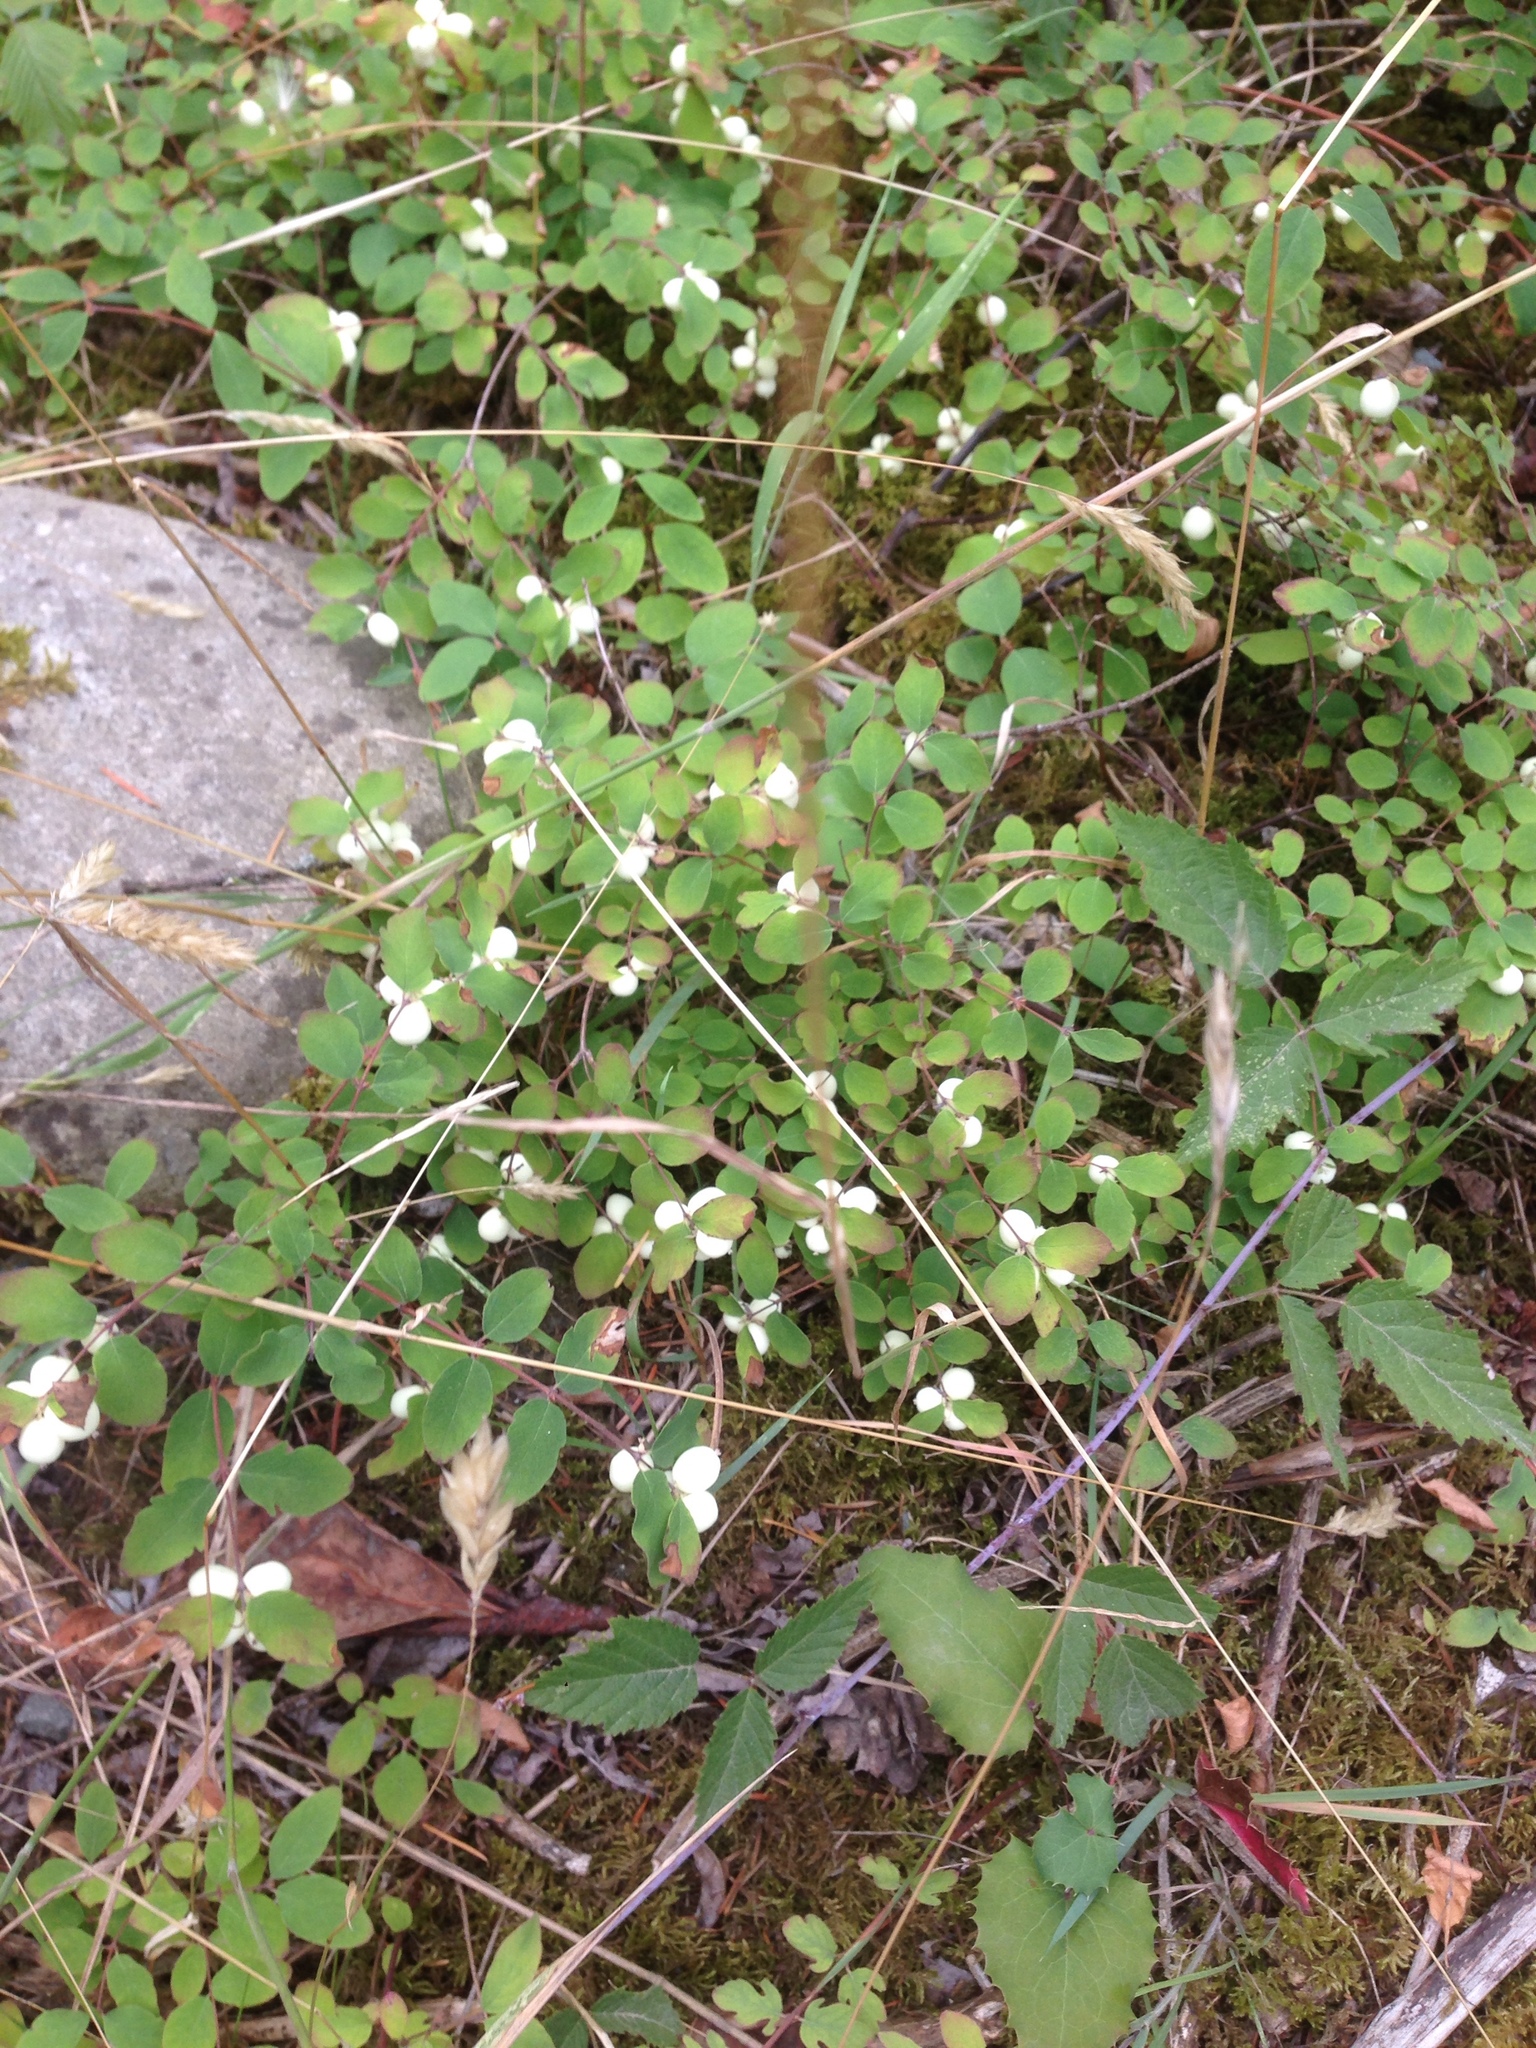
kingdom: Plantae
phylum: Tracheophyta
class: Magnoliopsida
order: Dipsacales
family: Caprifoliaceae
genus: Symphoricarpos
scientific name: Symphoricarpos mollis
